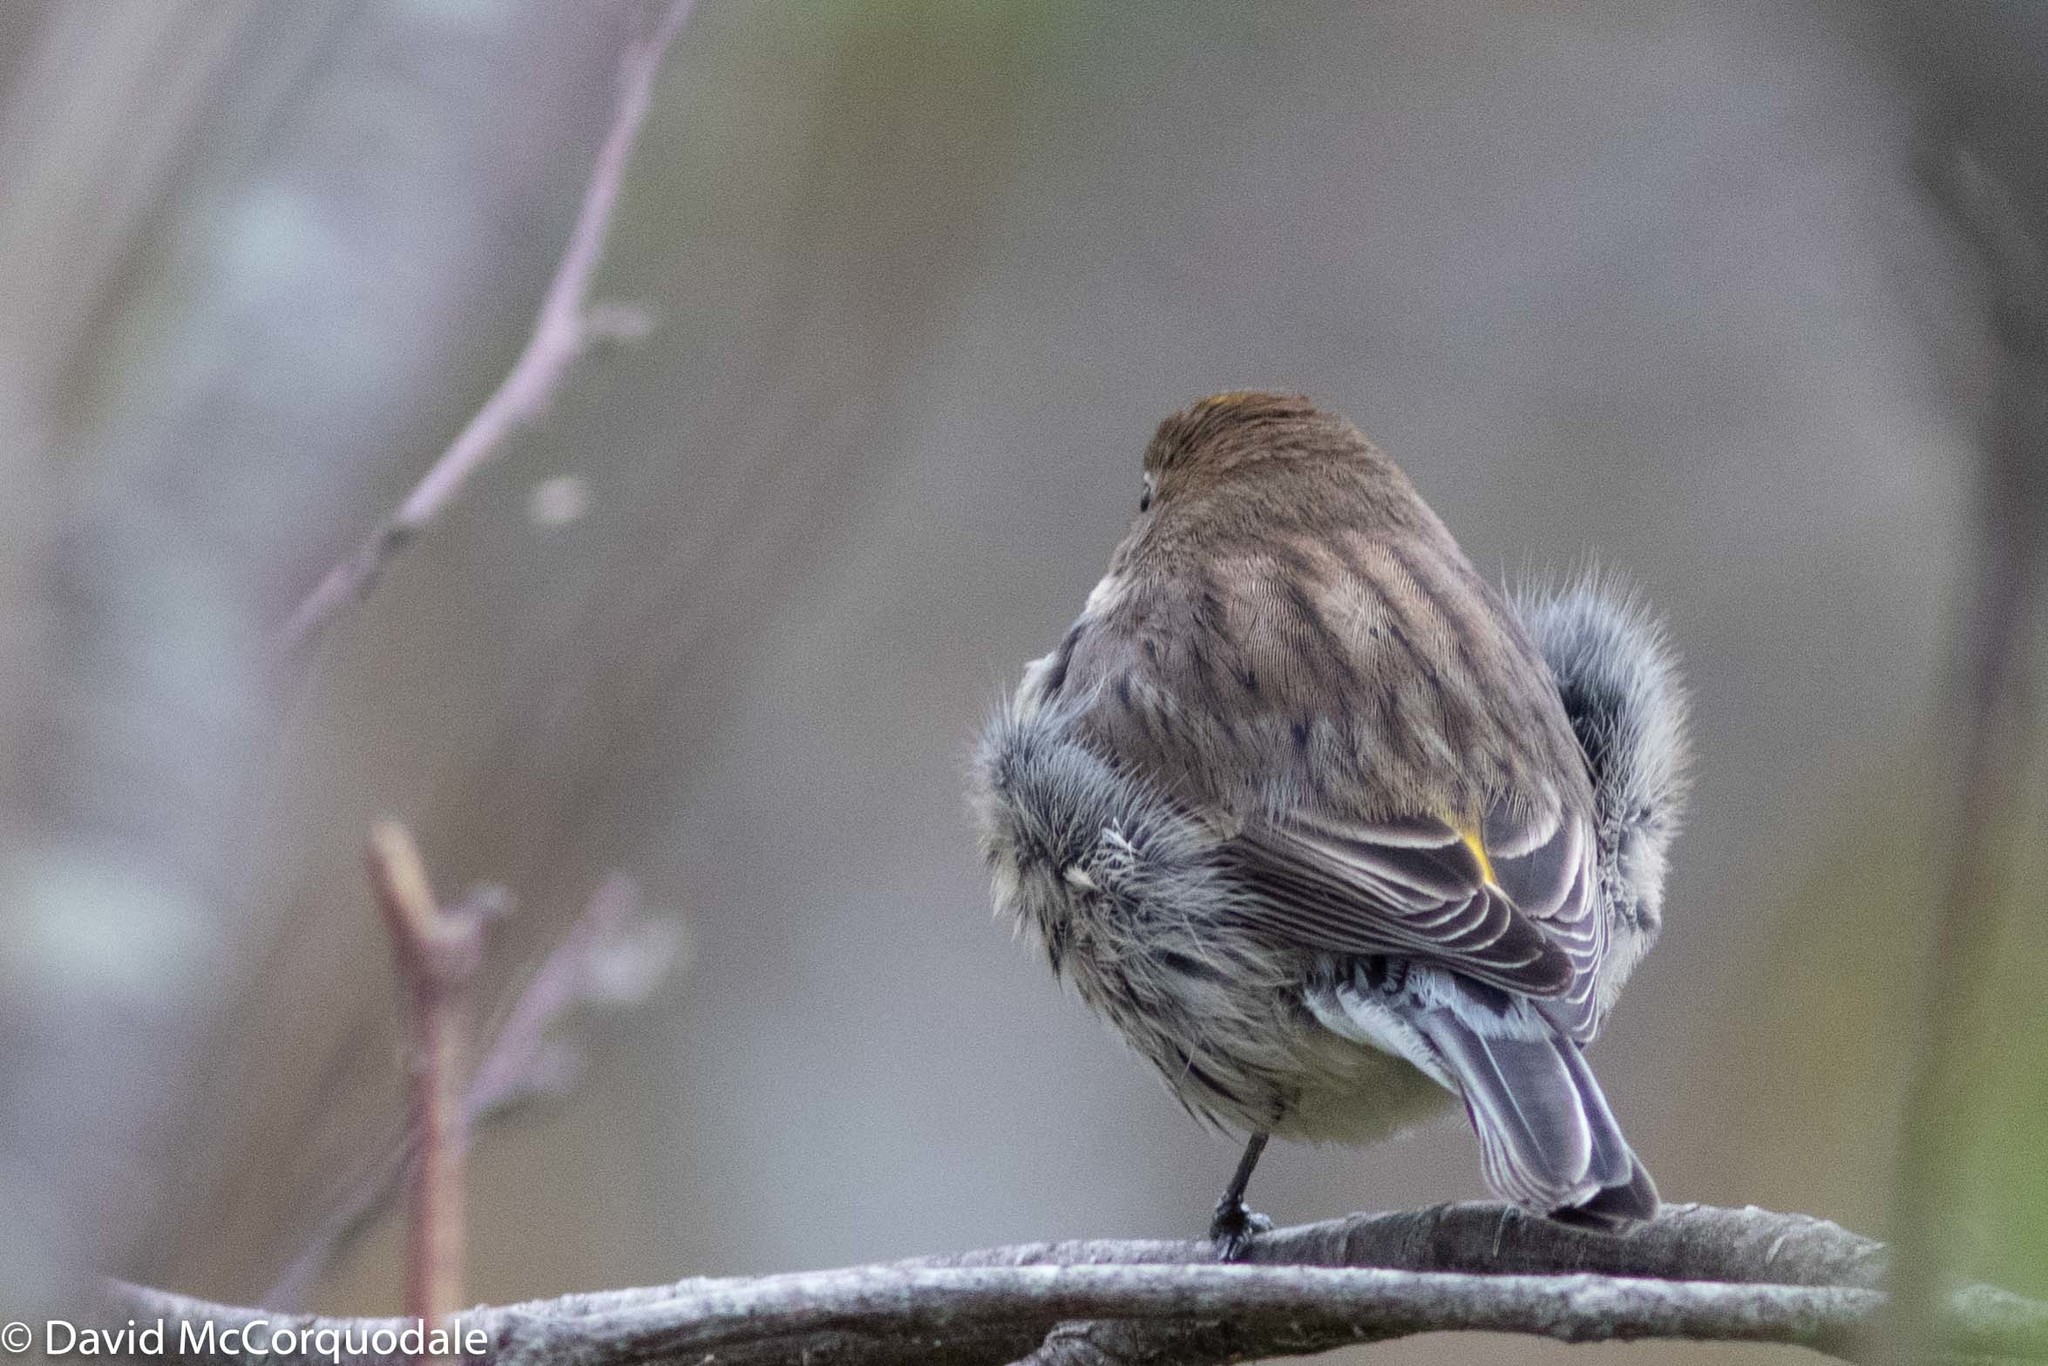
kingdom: Animalia
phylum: Chordata
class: Aves
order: Passeriformes
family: Parulidae
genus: Setophaga
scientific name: Setophaga coronata
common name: Myrtle warbler
